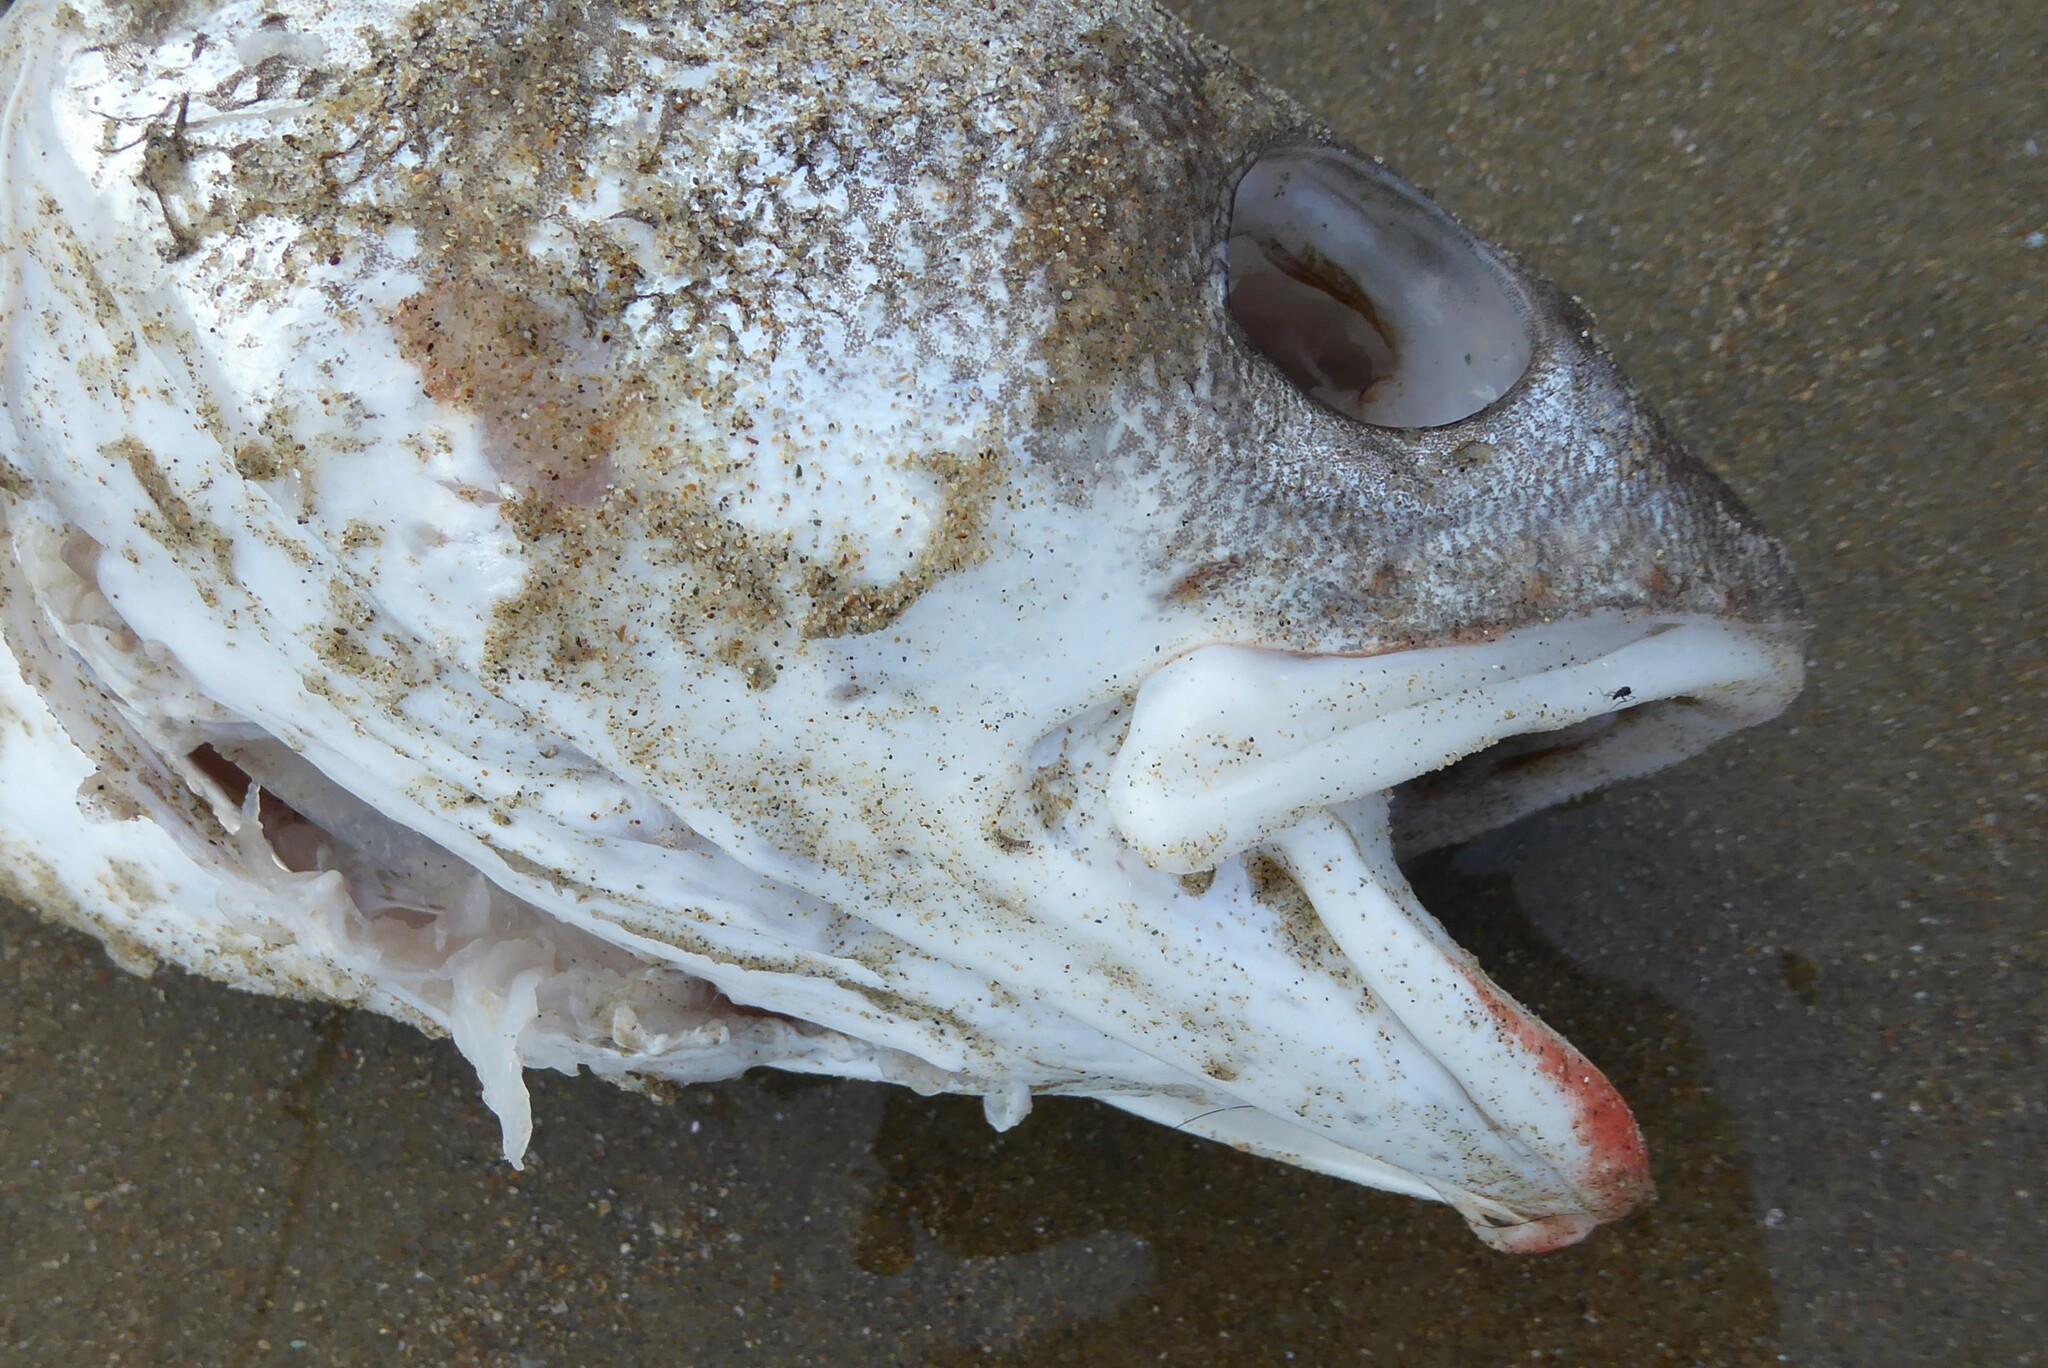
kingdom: Animalia
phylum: Chordata
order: Gadiformes
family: Moridae
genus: Pseudophycis
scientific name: Pseudophycis bachus
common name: Red cod
